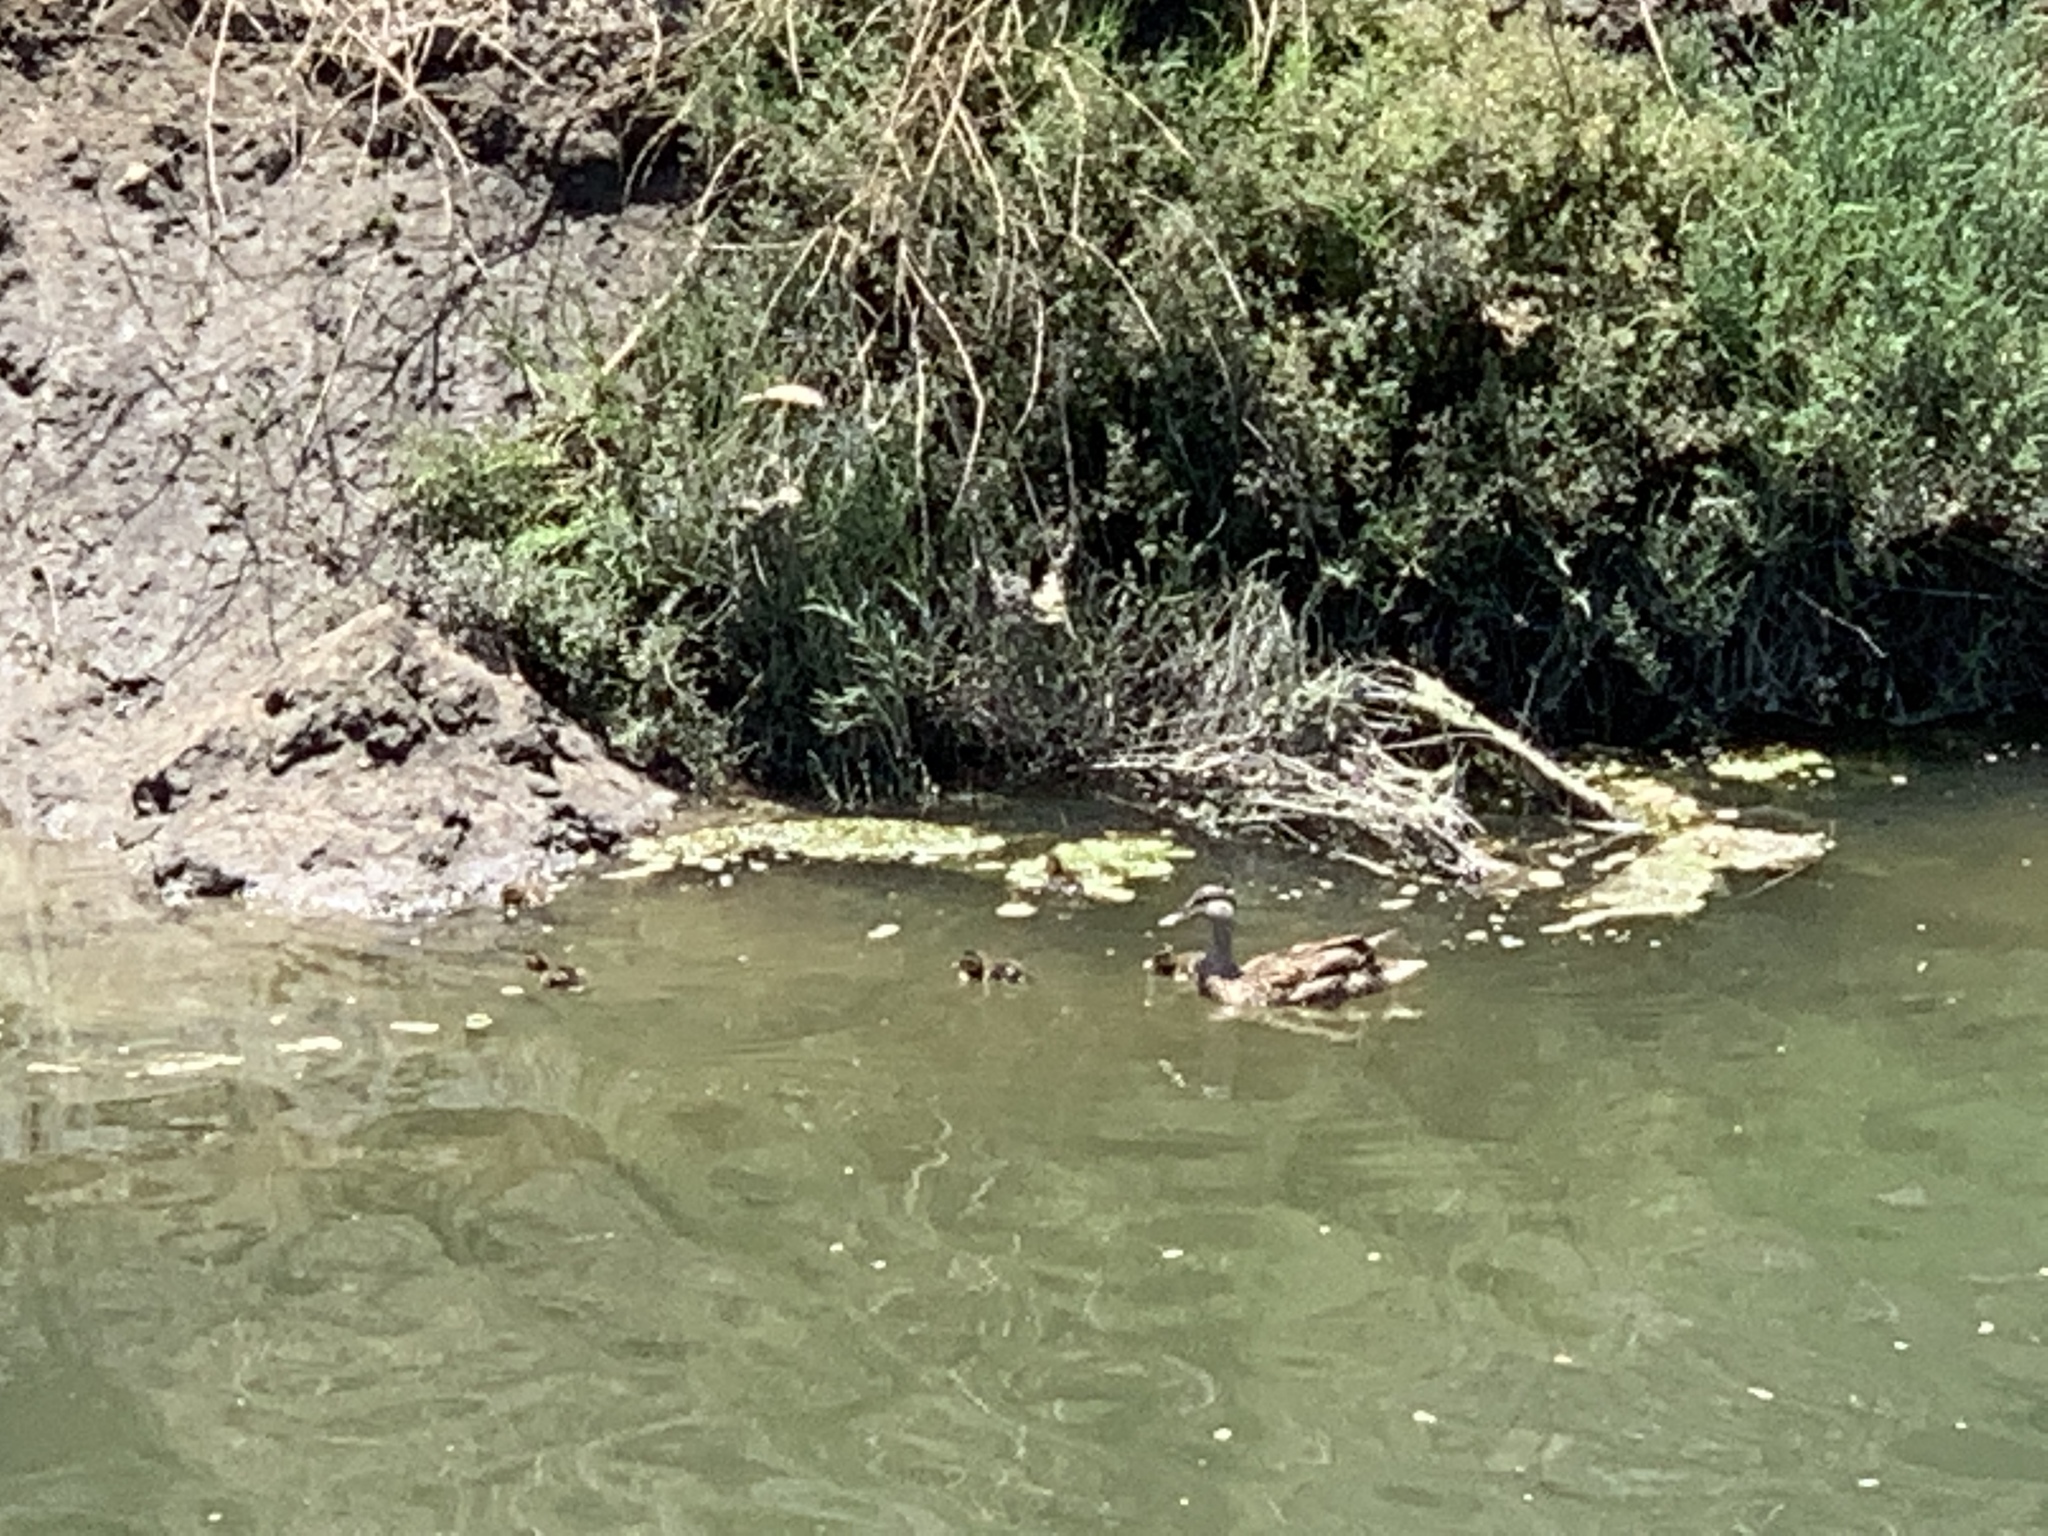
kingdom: Animalia
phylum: Chordata
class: Aves
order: Anseriformes
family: Anatidae
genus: Anas
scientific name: Anas platyrhynchos
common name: Mallard
